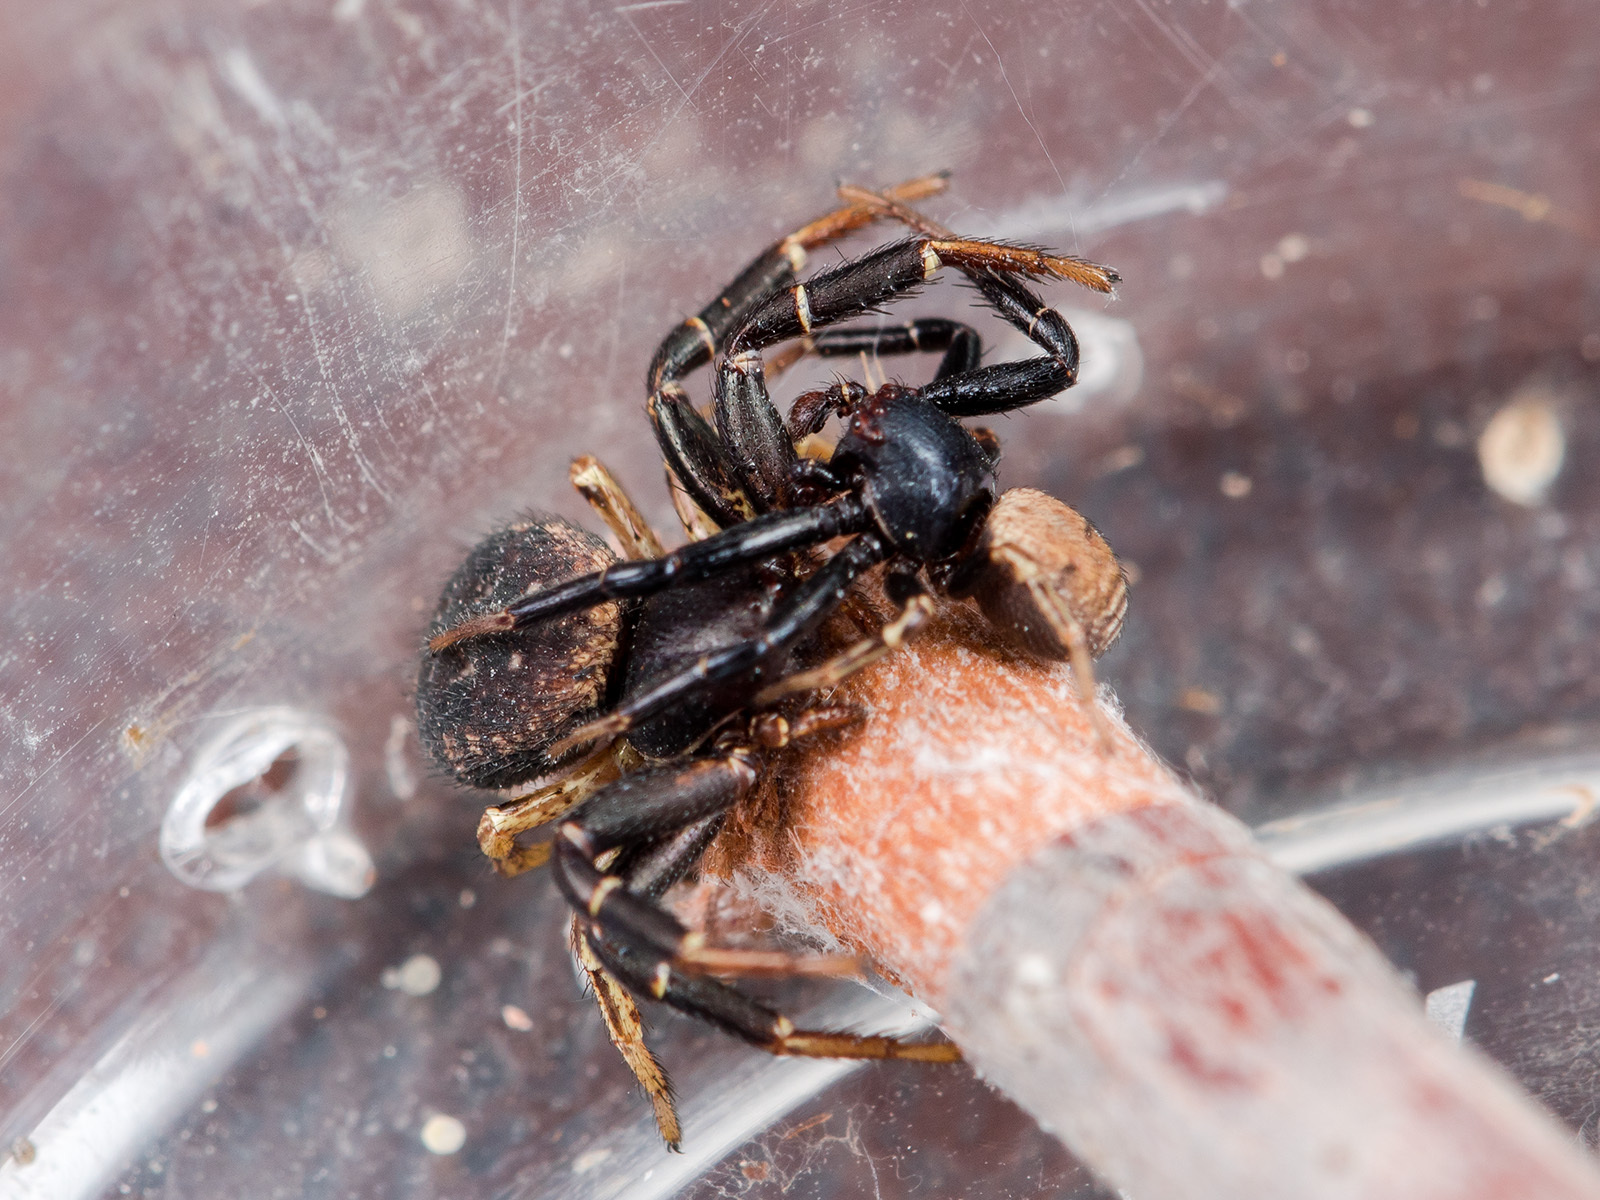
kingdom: Animalia
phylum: Arthropoda
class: Arachnida
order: Araneae
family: Thomisidae
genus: Bassaniodes
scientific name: Bassaniodes tristrami
